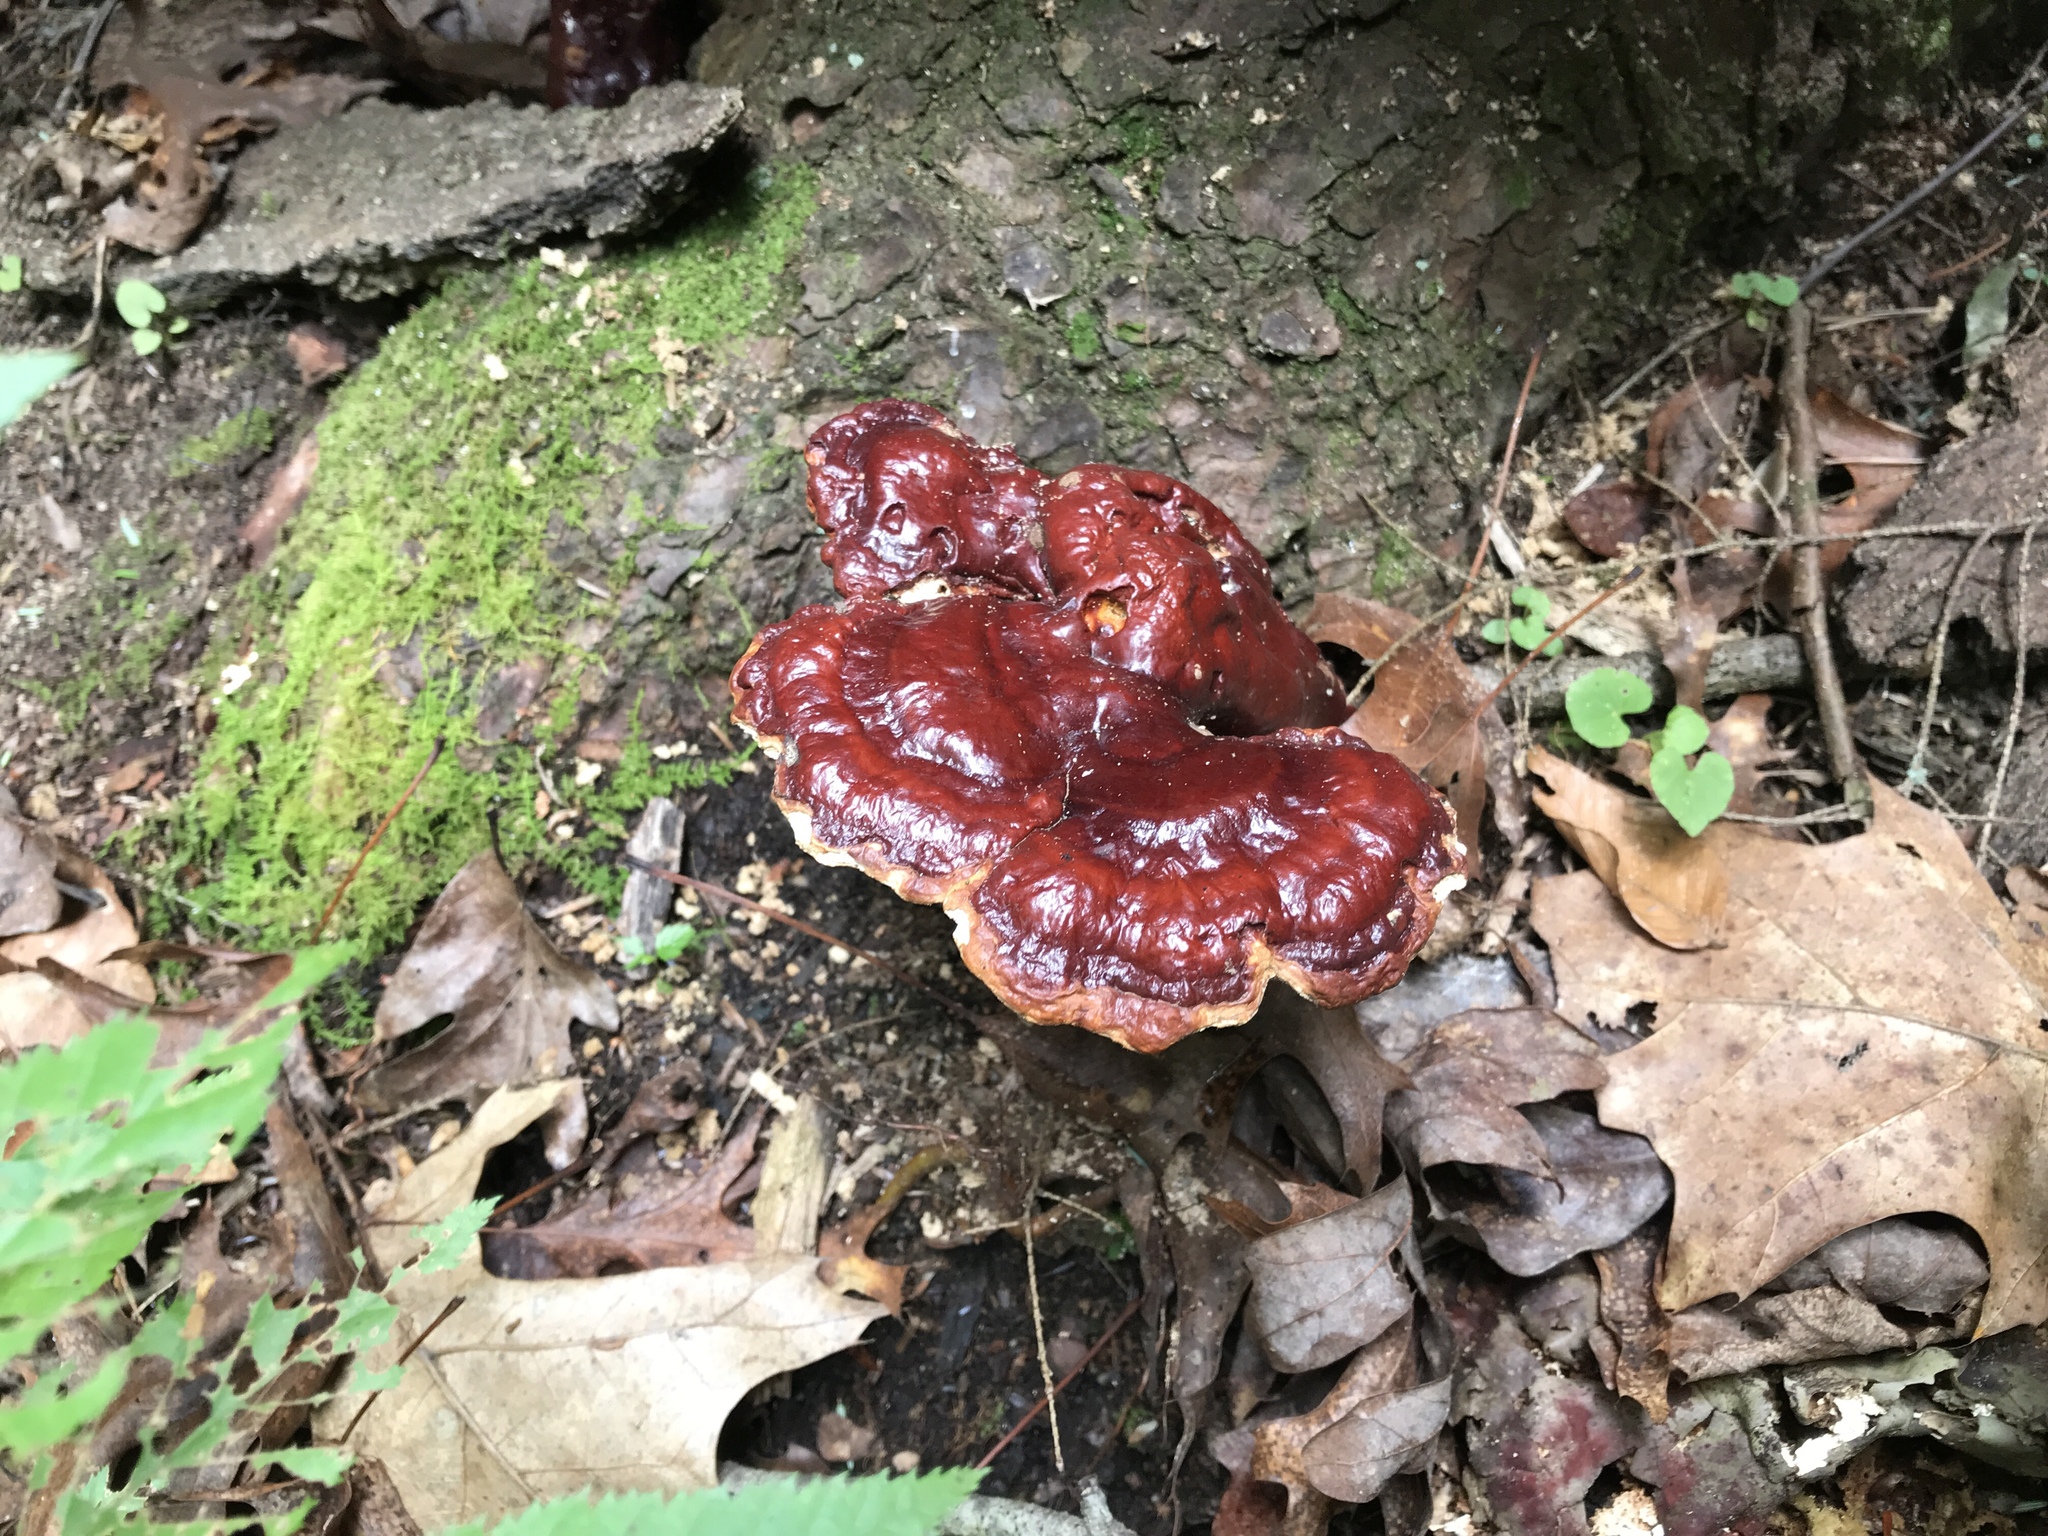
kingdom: Fungi
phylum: Basidiomycota
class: Agaricomycetes
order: Polyporales
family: Polyporaceae
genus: Ganoderma
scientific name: Ganoderma tsugae
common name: Hemlock varnish shelf
